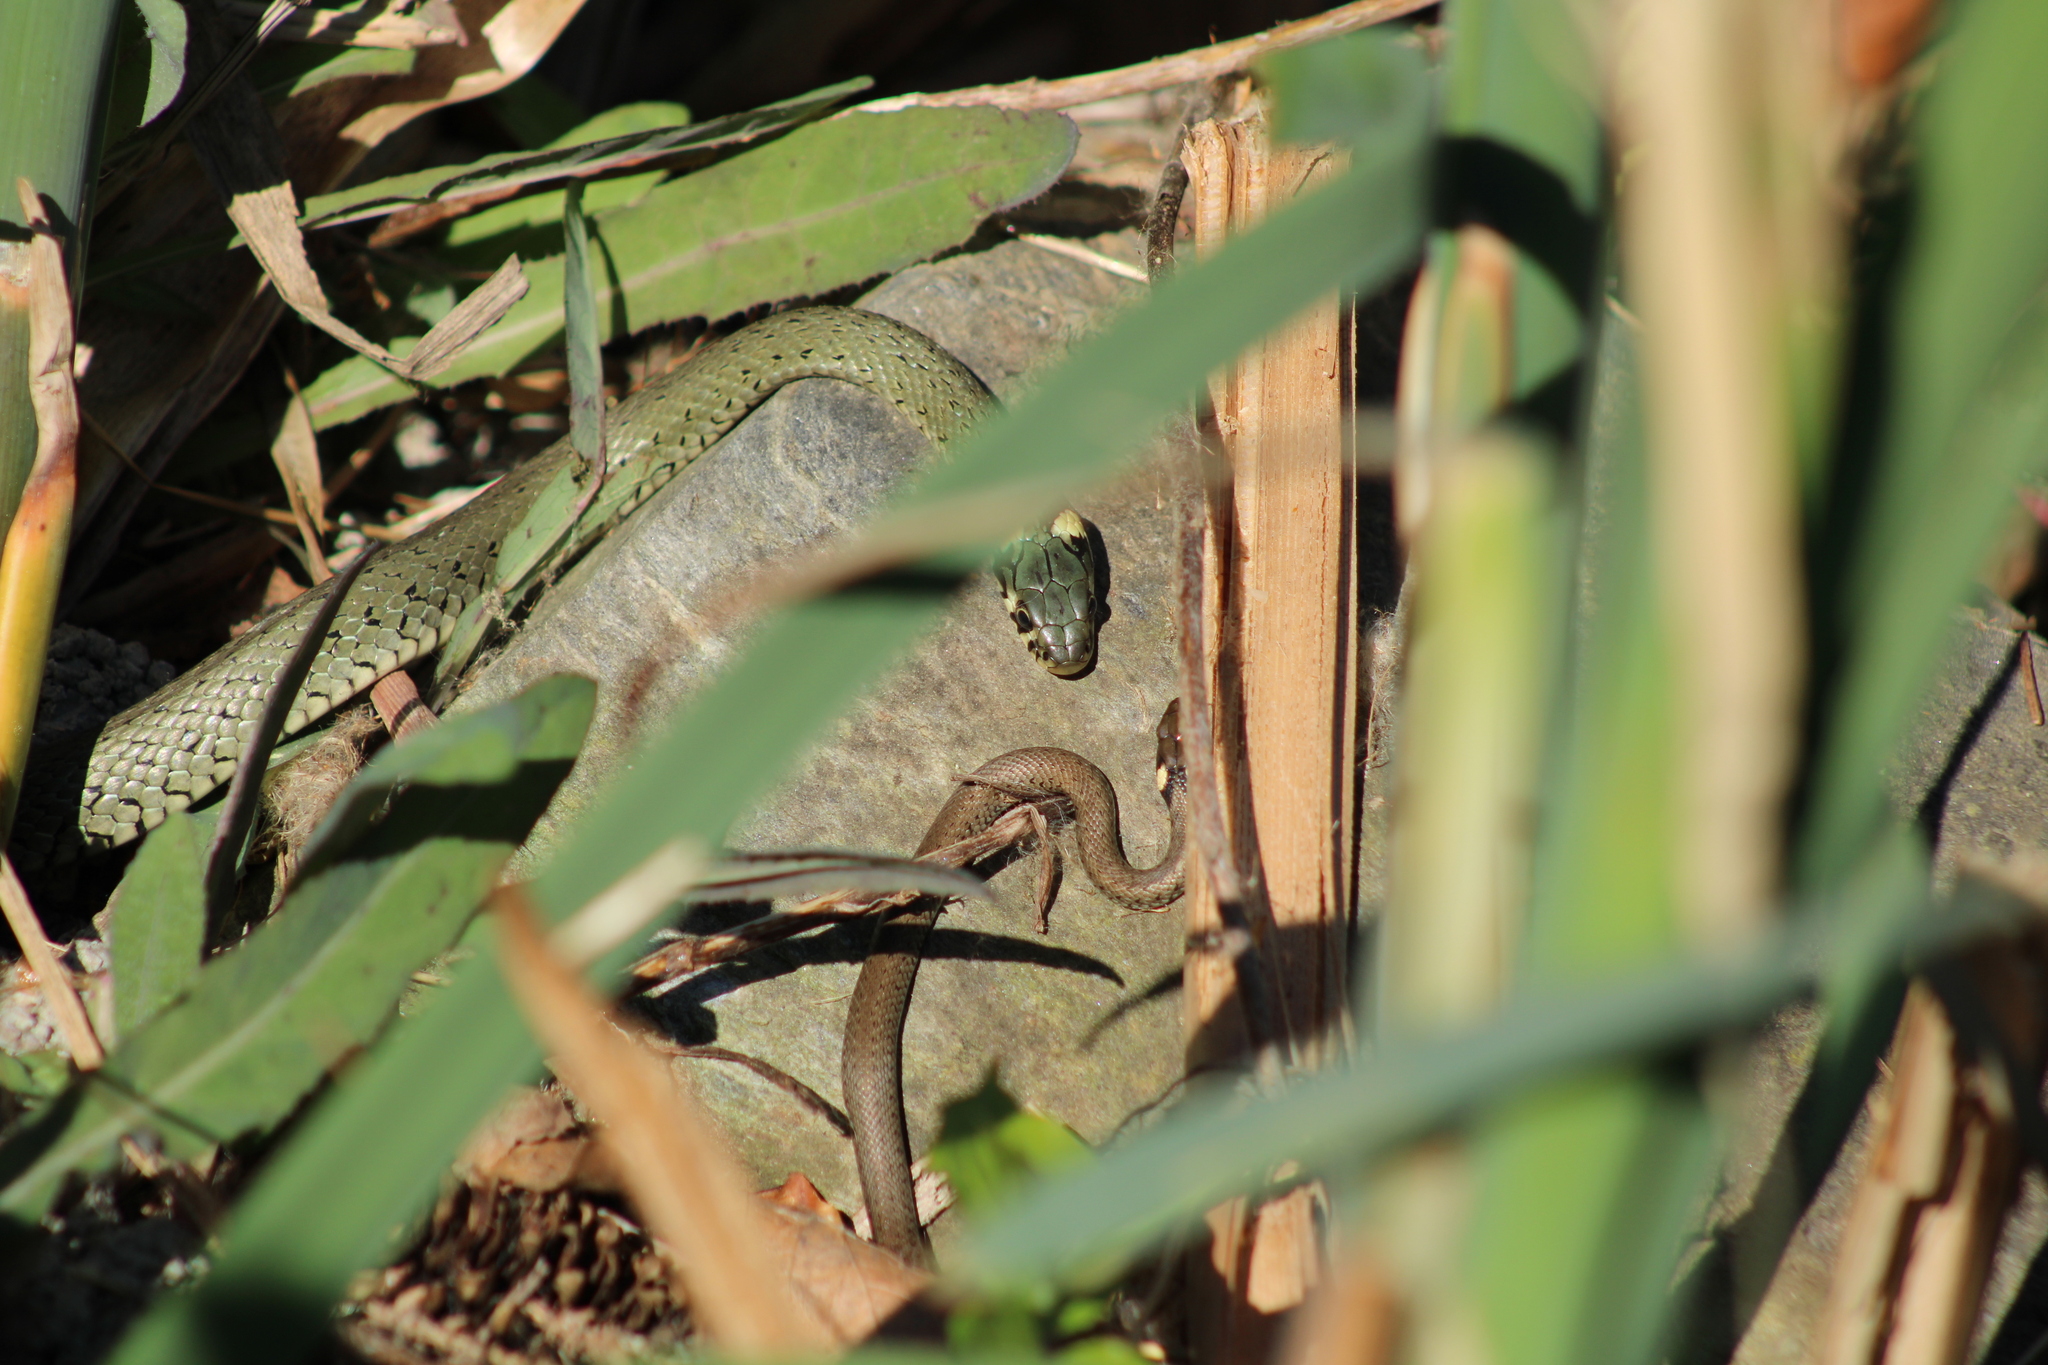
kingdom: Animalia
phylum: Chordata
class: Squamata
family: Colubridae
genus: Natrix
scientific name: Natrix natrix
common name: Grass snake
